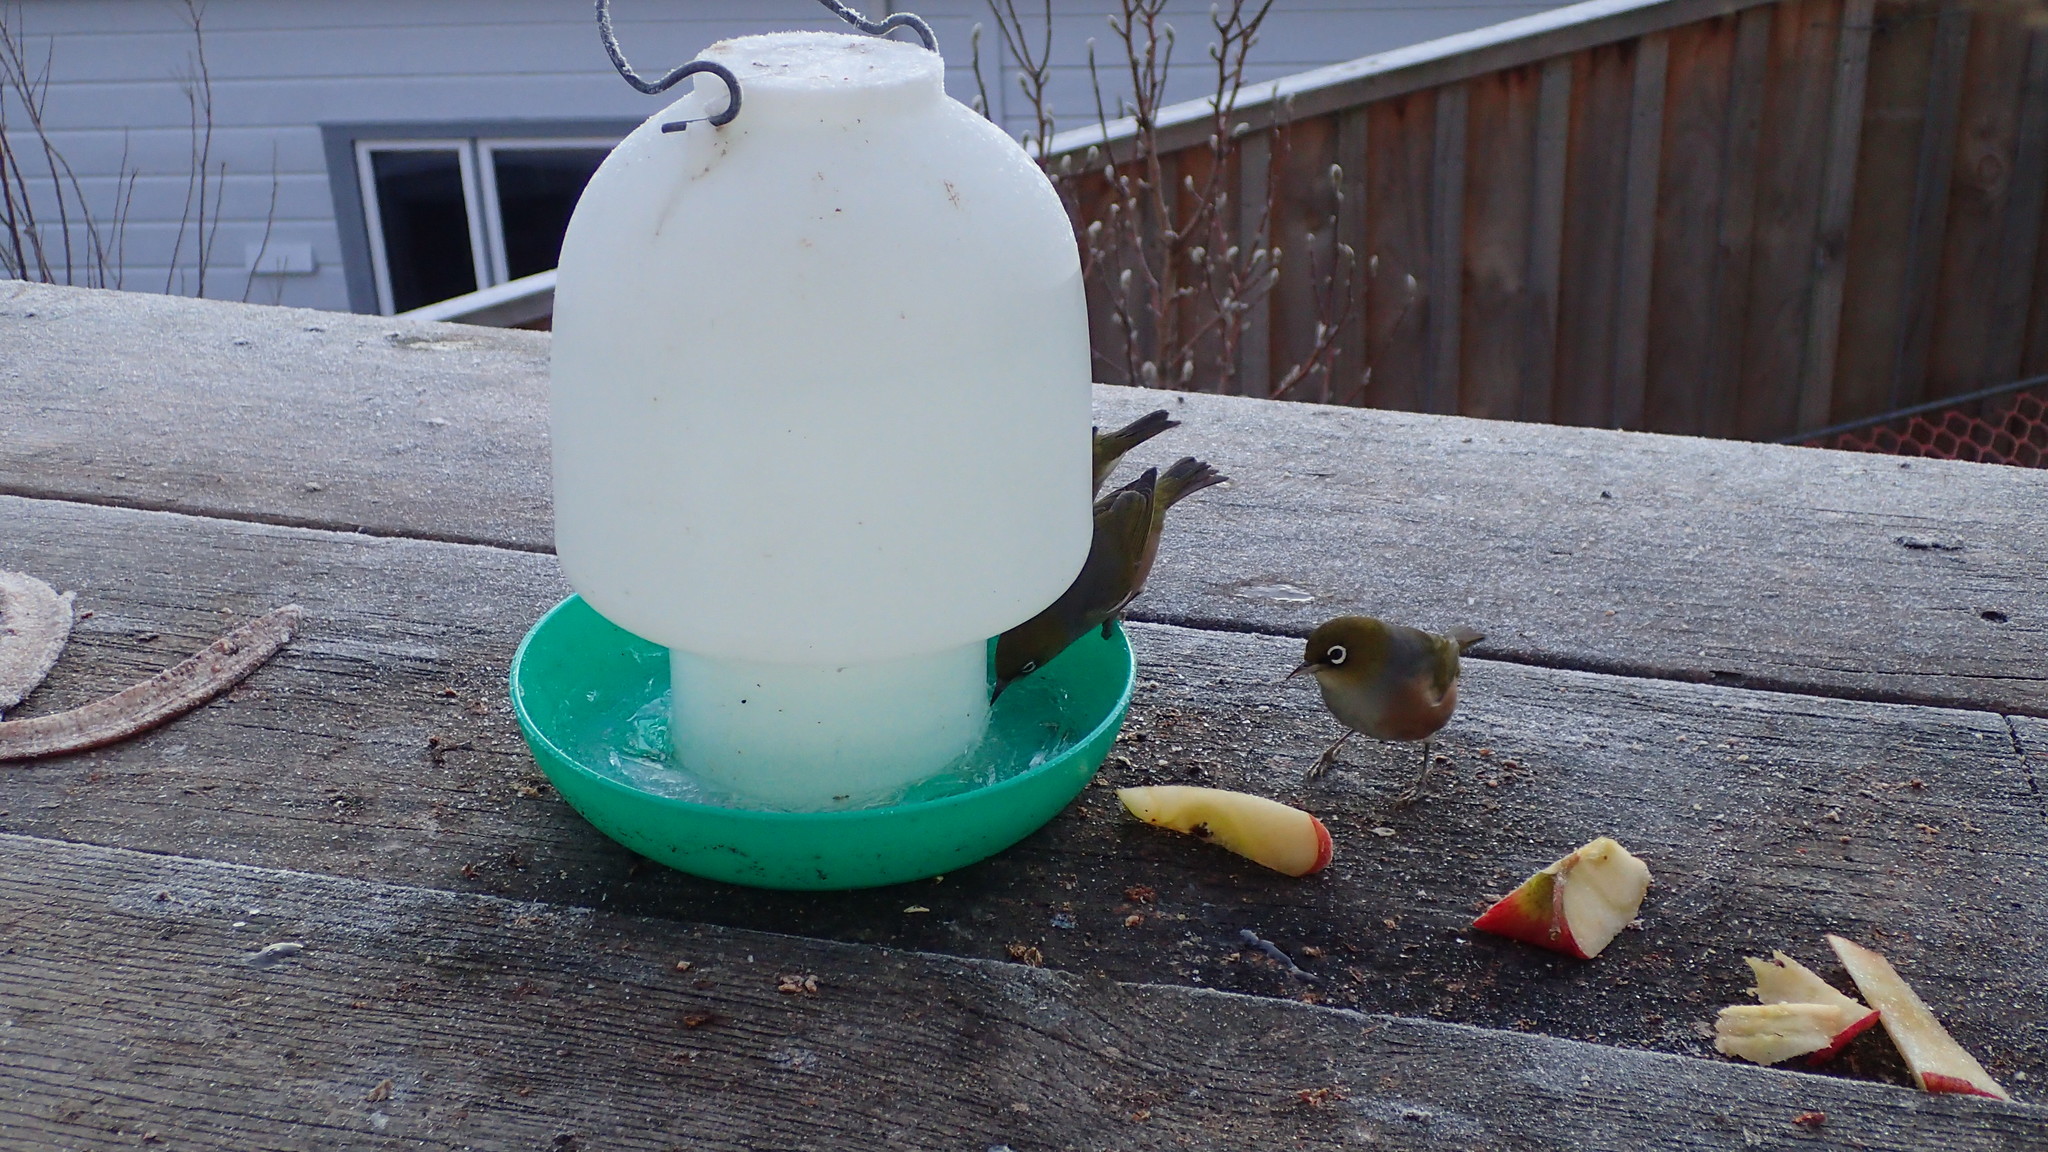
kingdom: Animalia
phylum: Chordata
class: Aves
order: Passeriformes
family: Zosteropidae
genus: Zosterops
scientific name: Zosterops lateralis
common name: Silvereye
